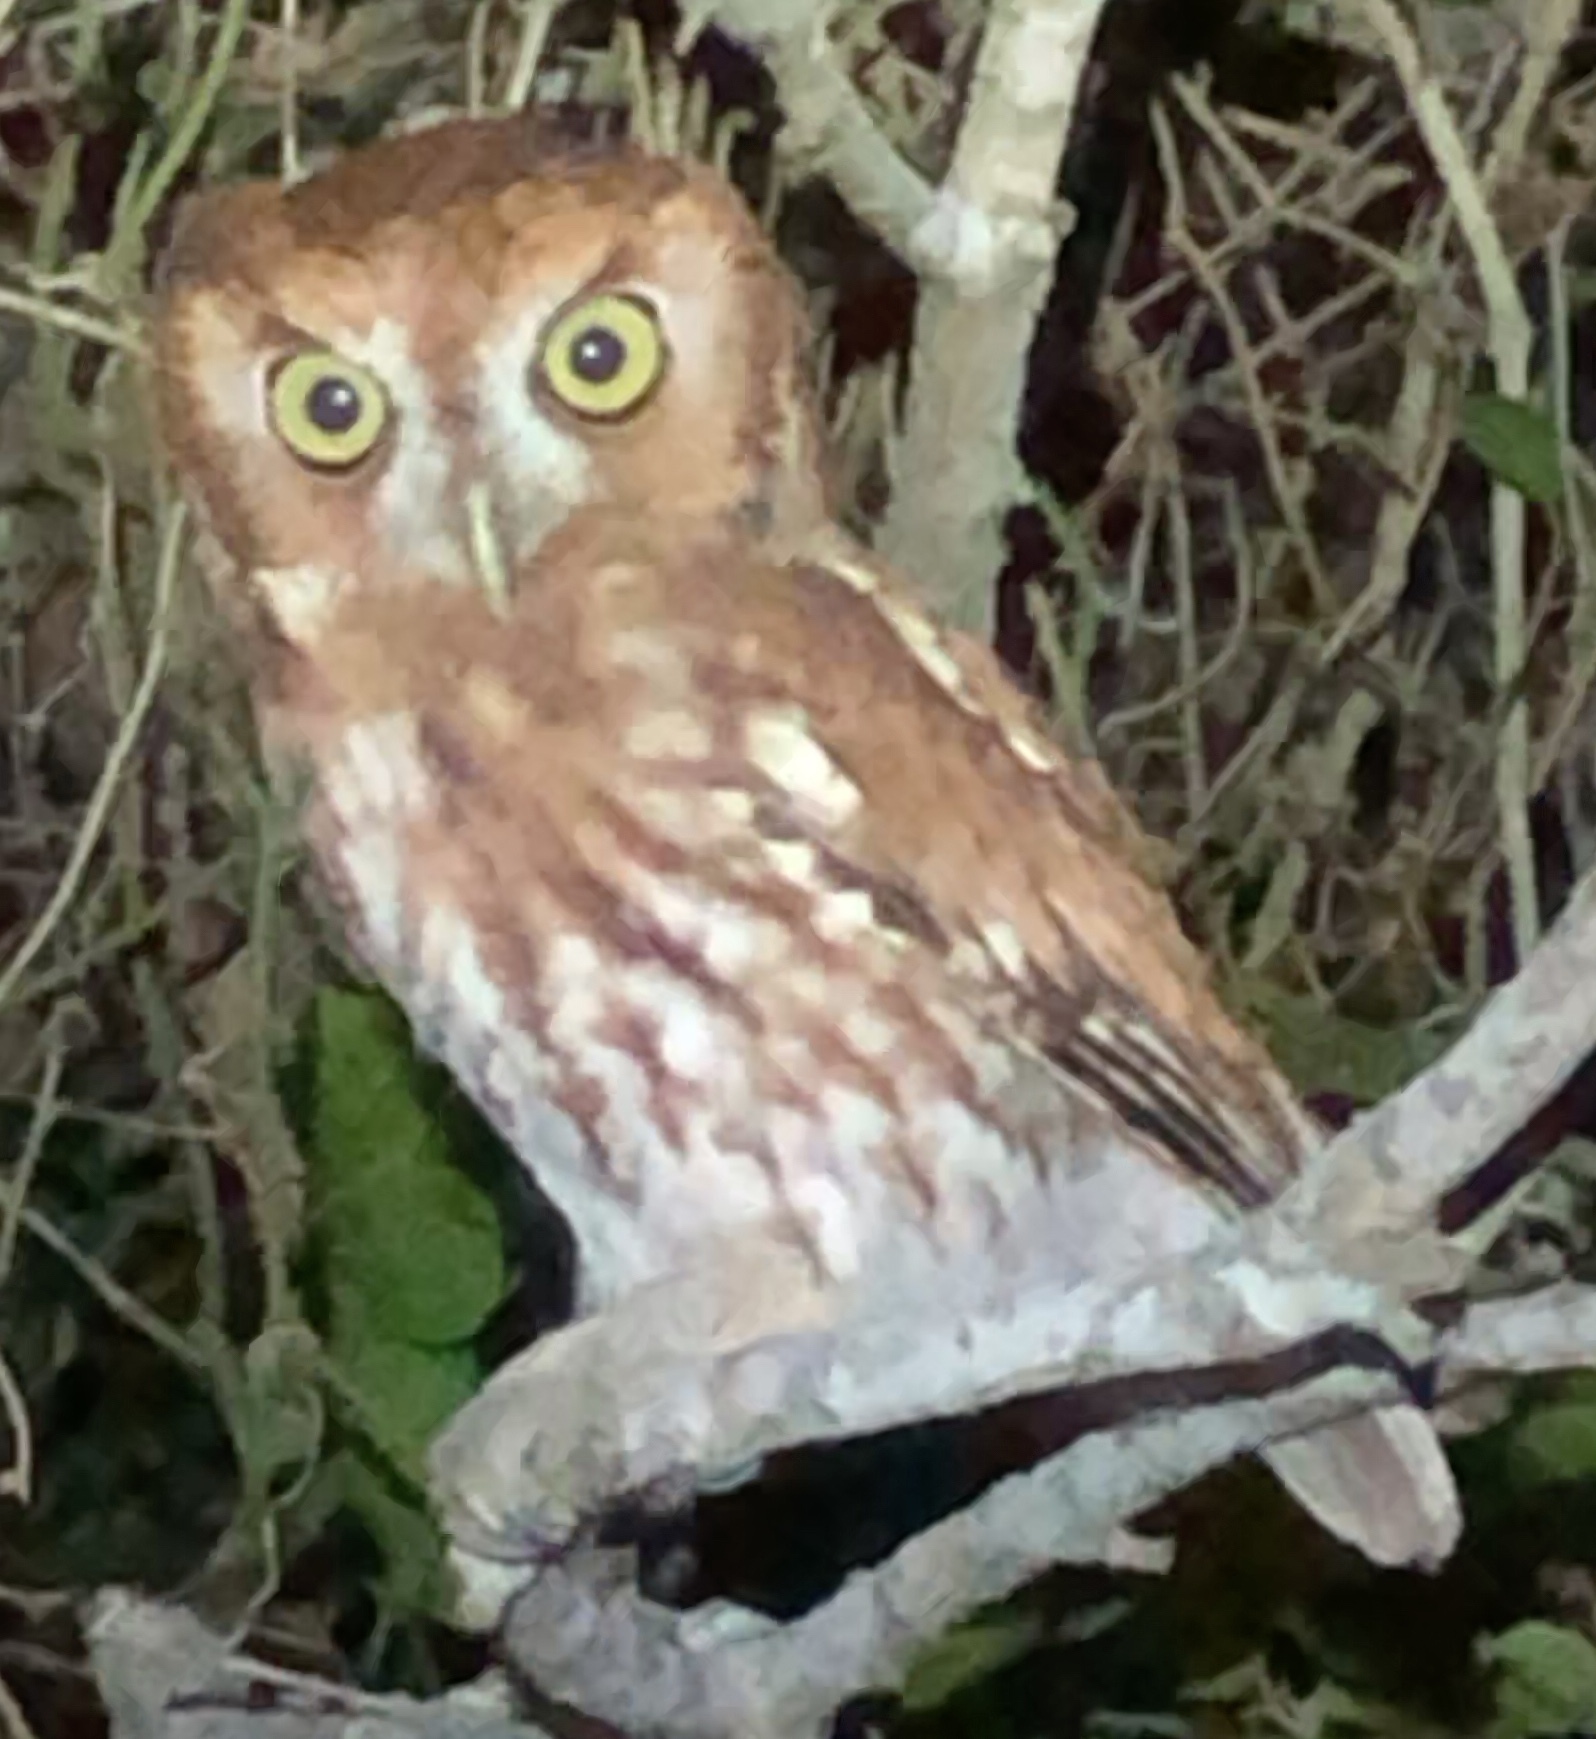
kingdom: Animalia
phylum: Chordata
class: Aves
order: Strigiformes
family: Strigidae
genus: Megascops
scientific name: Megascops asio
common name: Eastern screech-owl
